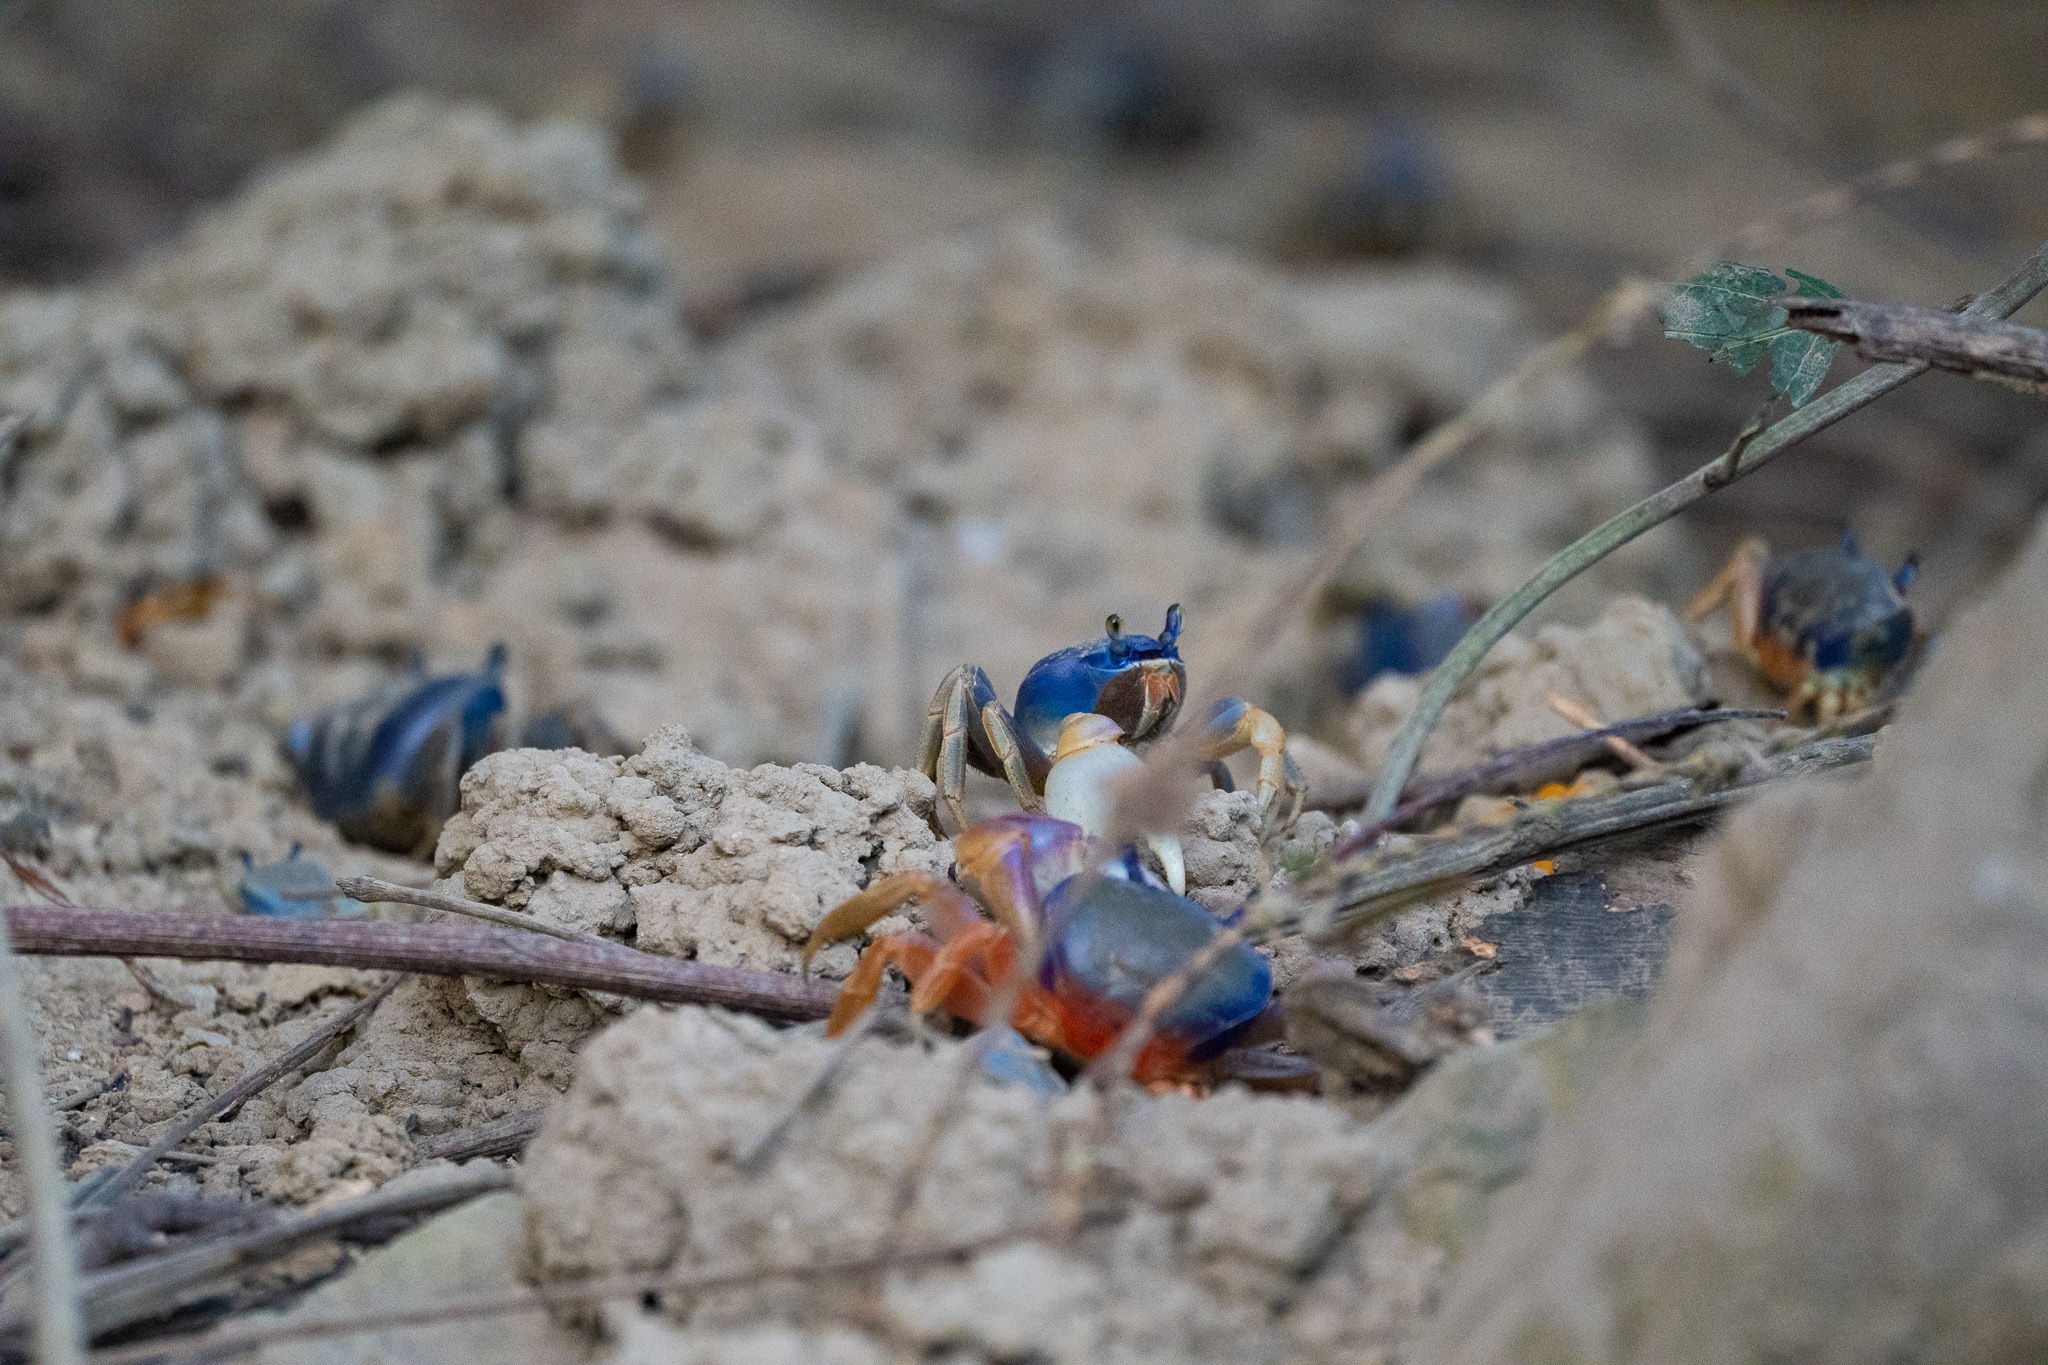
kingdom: Animalia
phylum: Arthropoda
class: Malacostraca
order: Decapoda
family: Gecarcinidae
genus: Cardisoma
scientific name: Cardisoma guanhumi
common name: Great land crab
